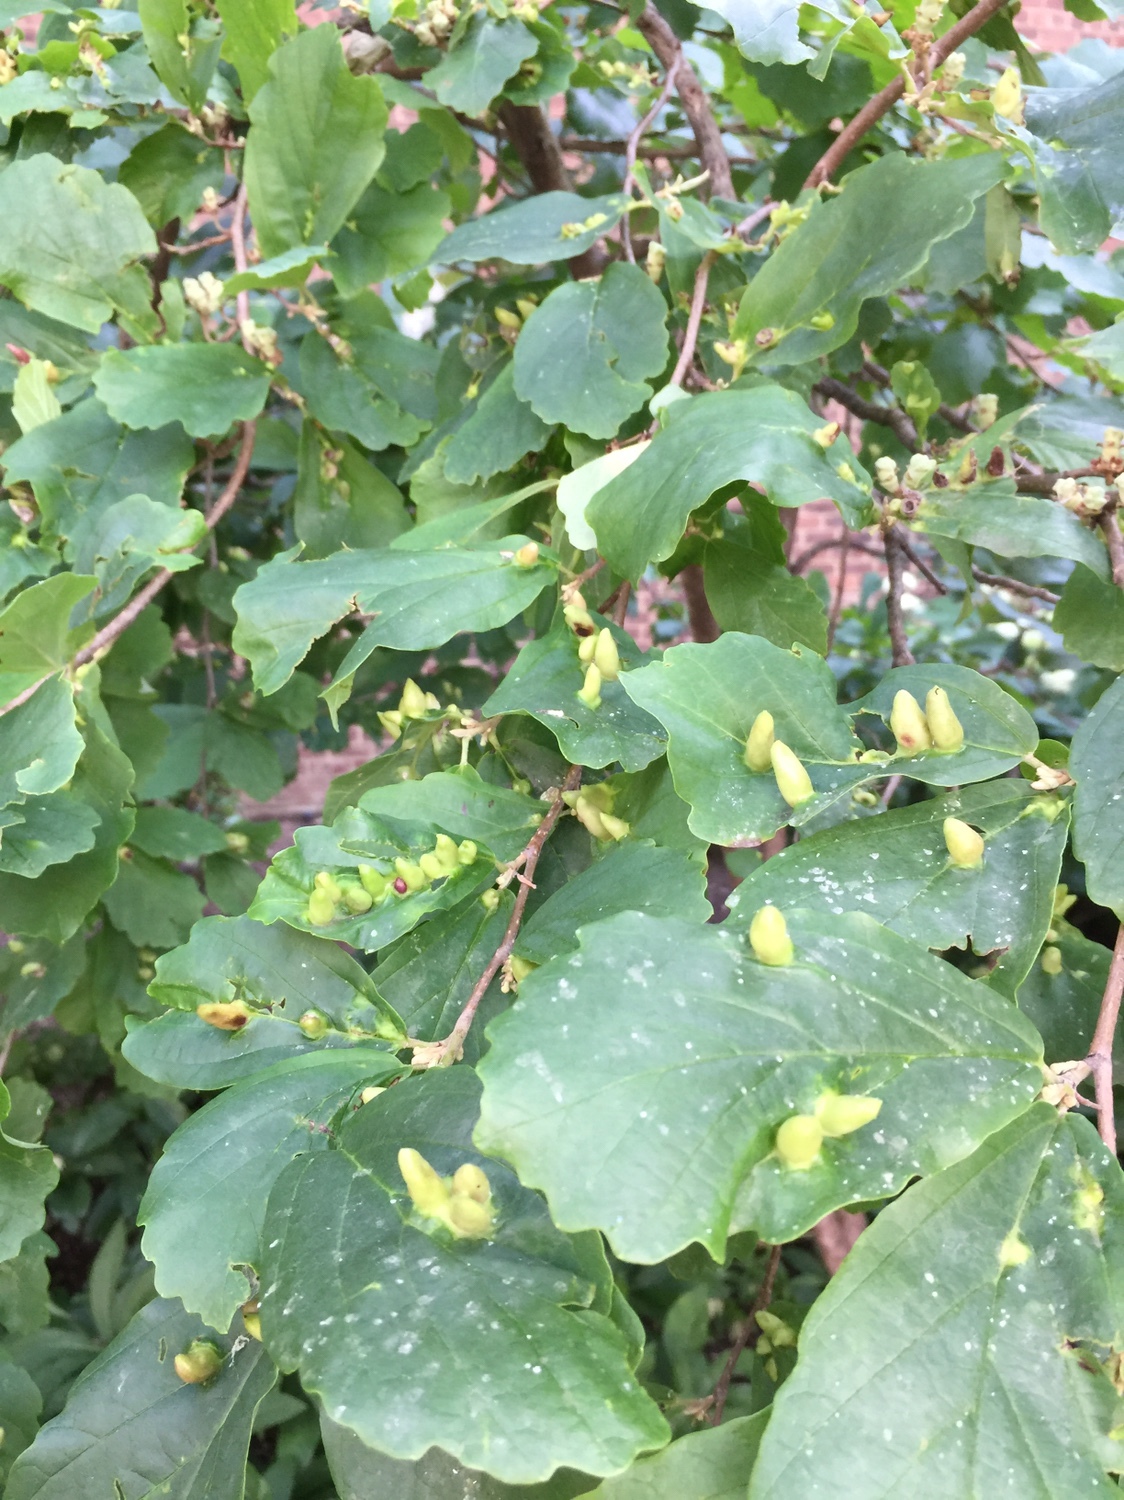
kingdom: Animalia
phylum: Arthropoda
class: Insecta
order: Hemiptera
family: Aphididae
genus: Hormaphis
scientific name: Hormaphis hamamelidis
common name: Witch-hazel cone gall aphid
